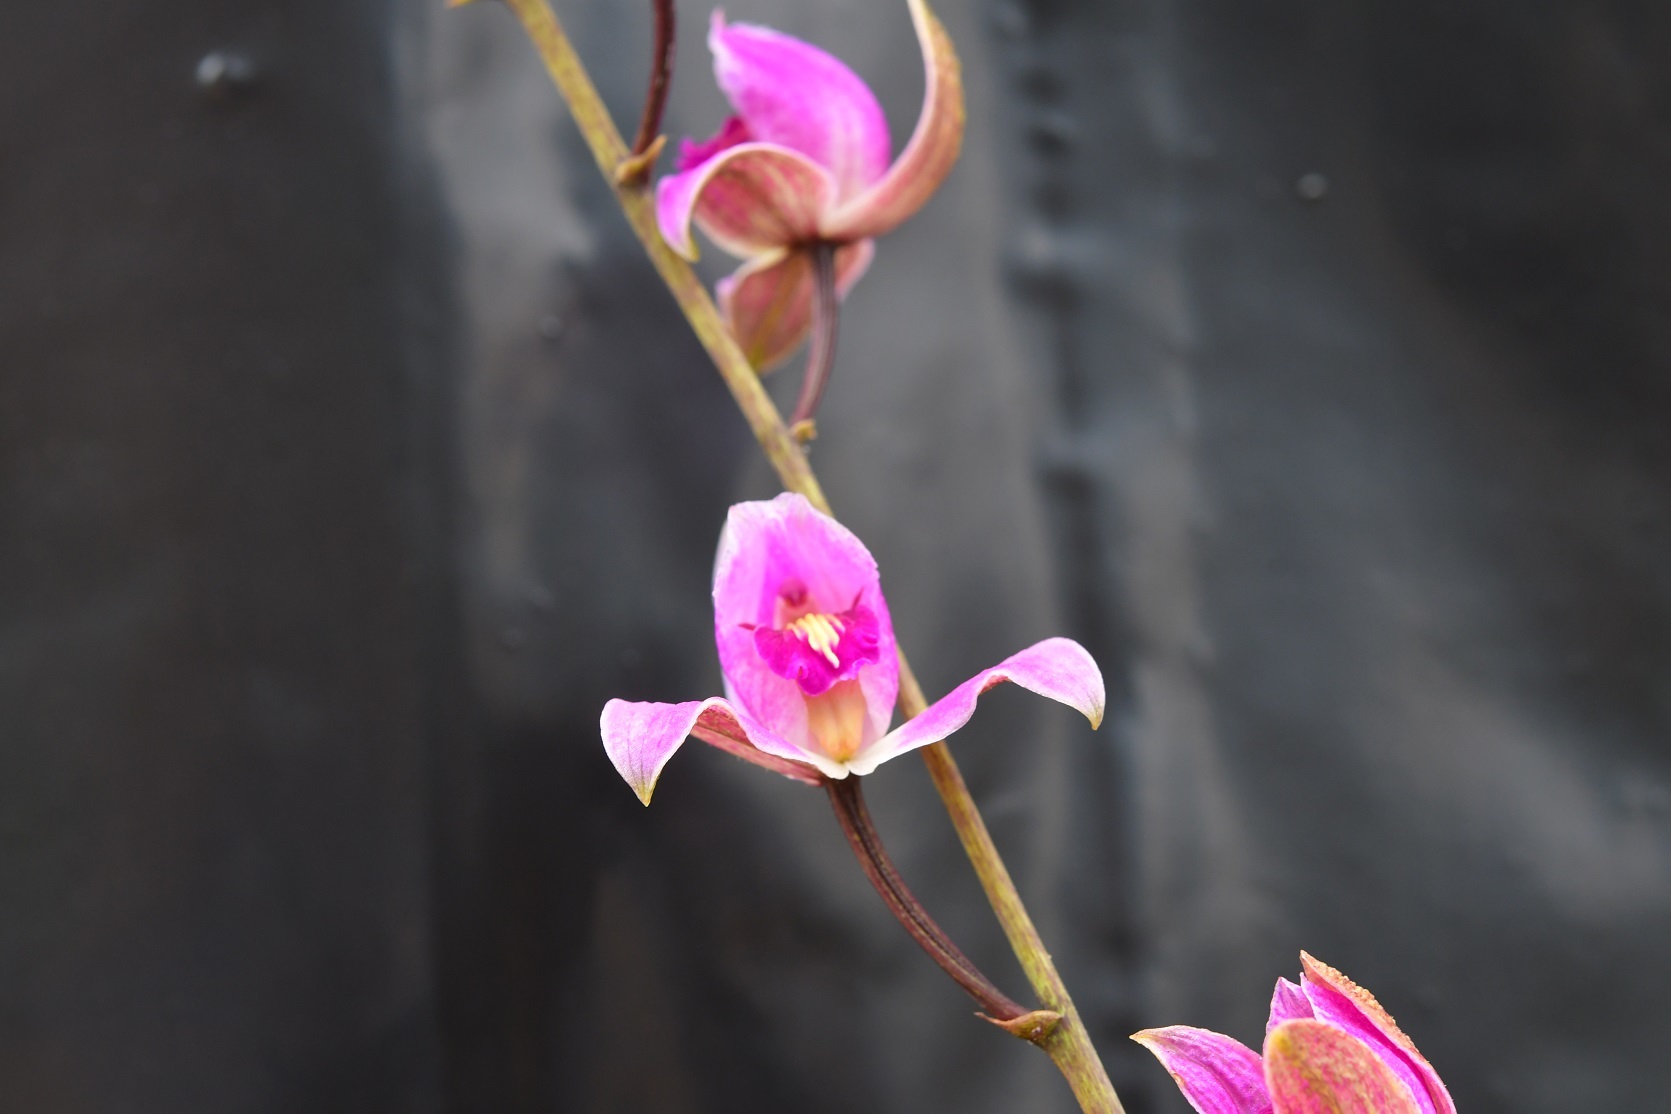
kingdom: Plantae
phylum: Tracheophyta
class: Liliopsida
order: Asparagales
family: Orchidaceae
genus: Bletia
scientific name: Bletia purpurea
